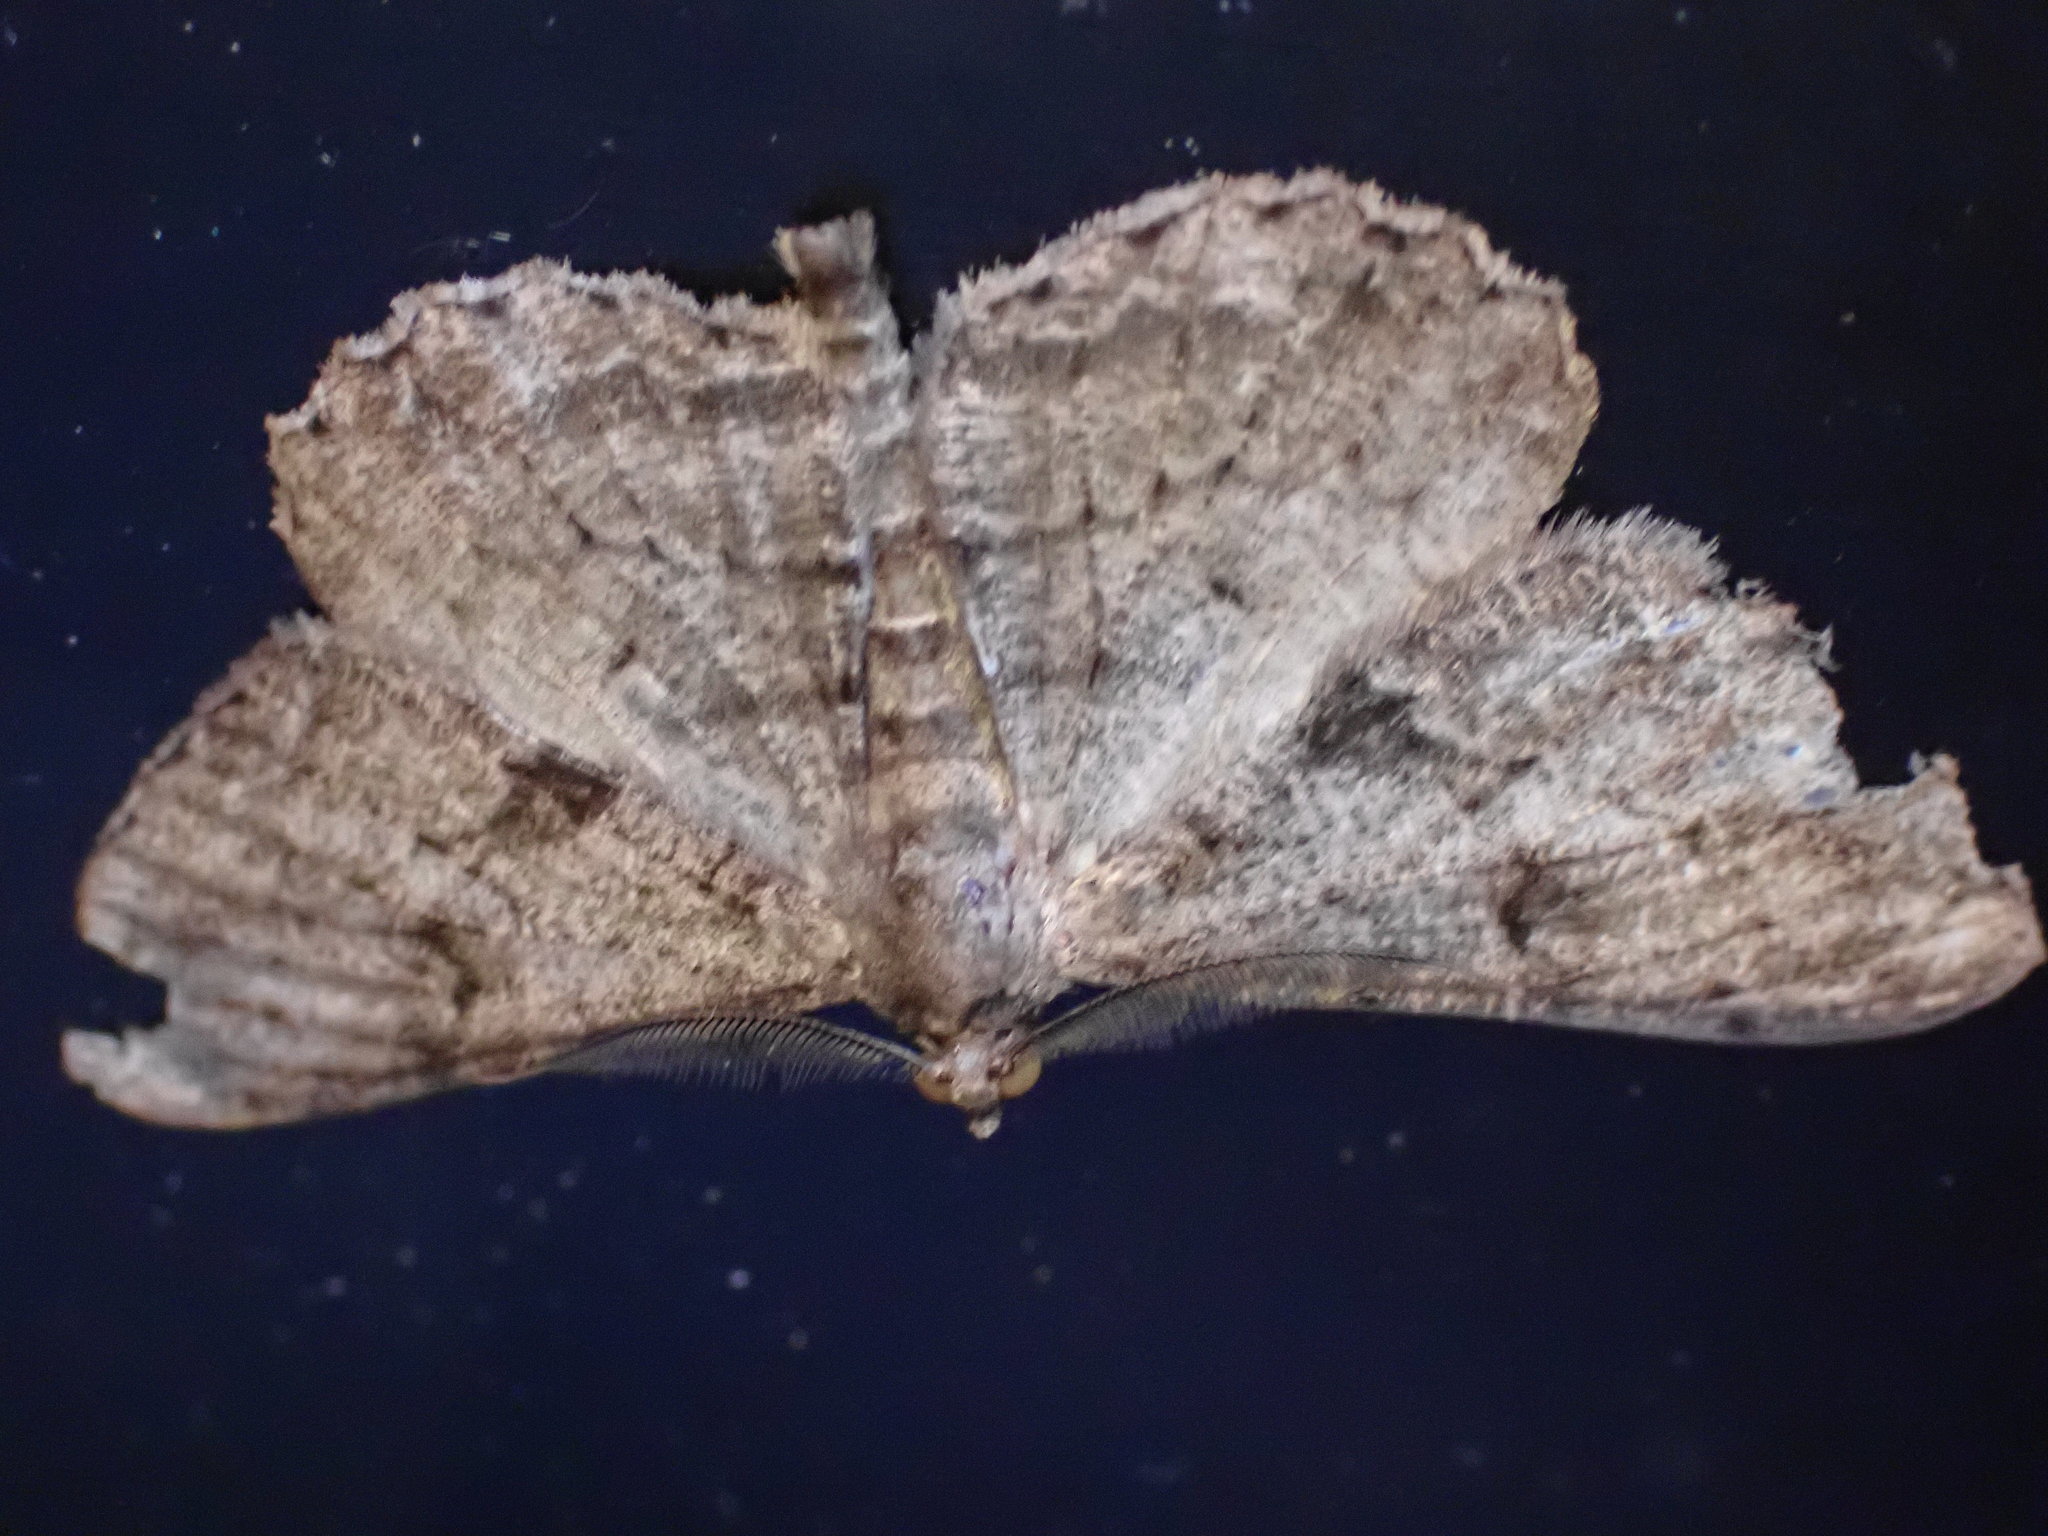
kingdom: Animalia
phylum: Arthropoda
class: Insecta
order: Lepidoptera
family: Geometridae
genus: Peribatodes
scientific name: Peribatodes rhomboidaria
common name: Willow beauty
